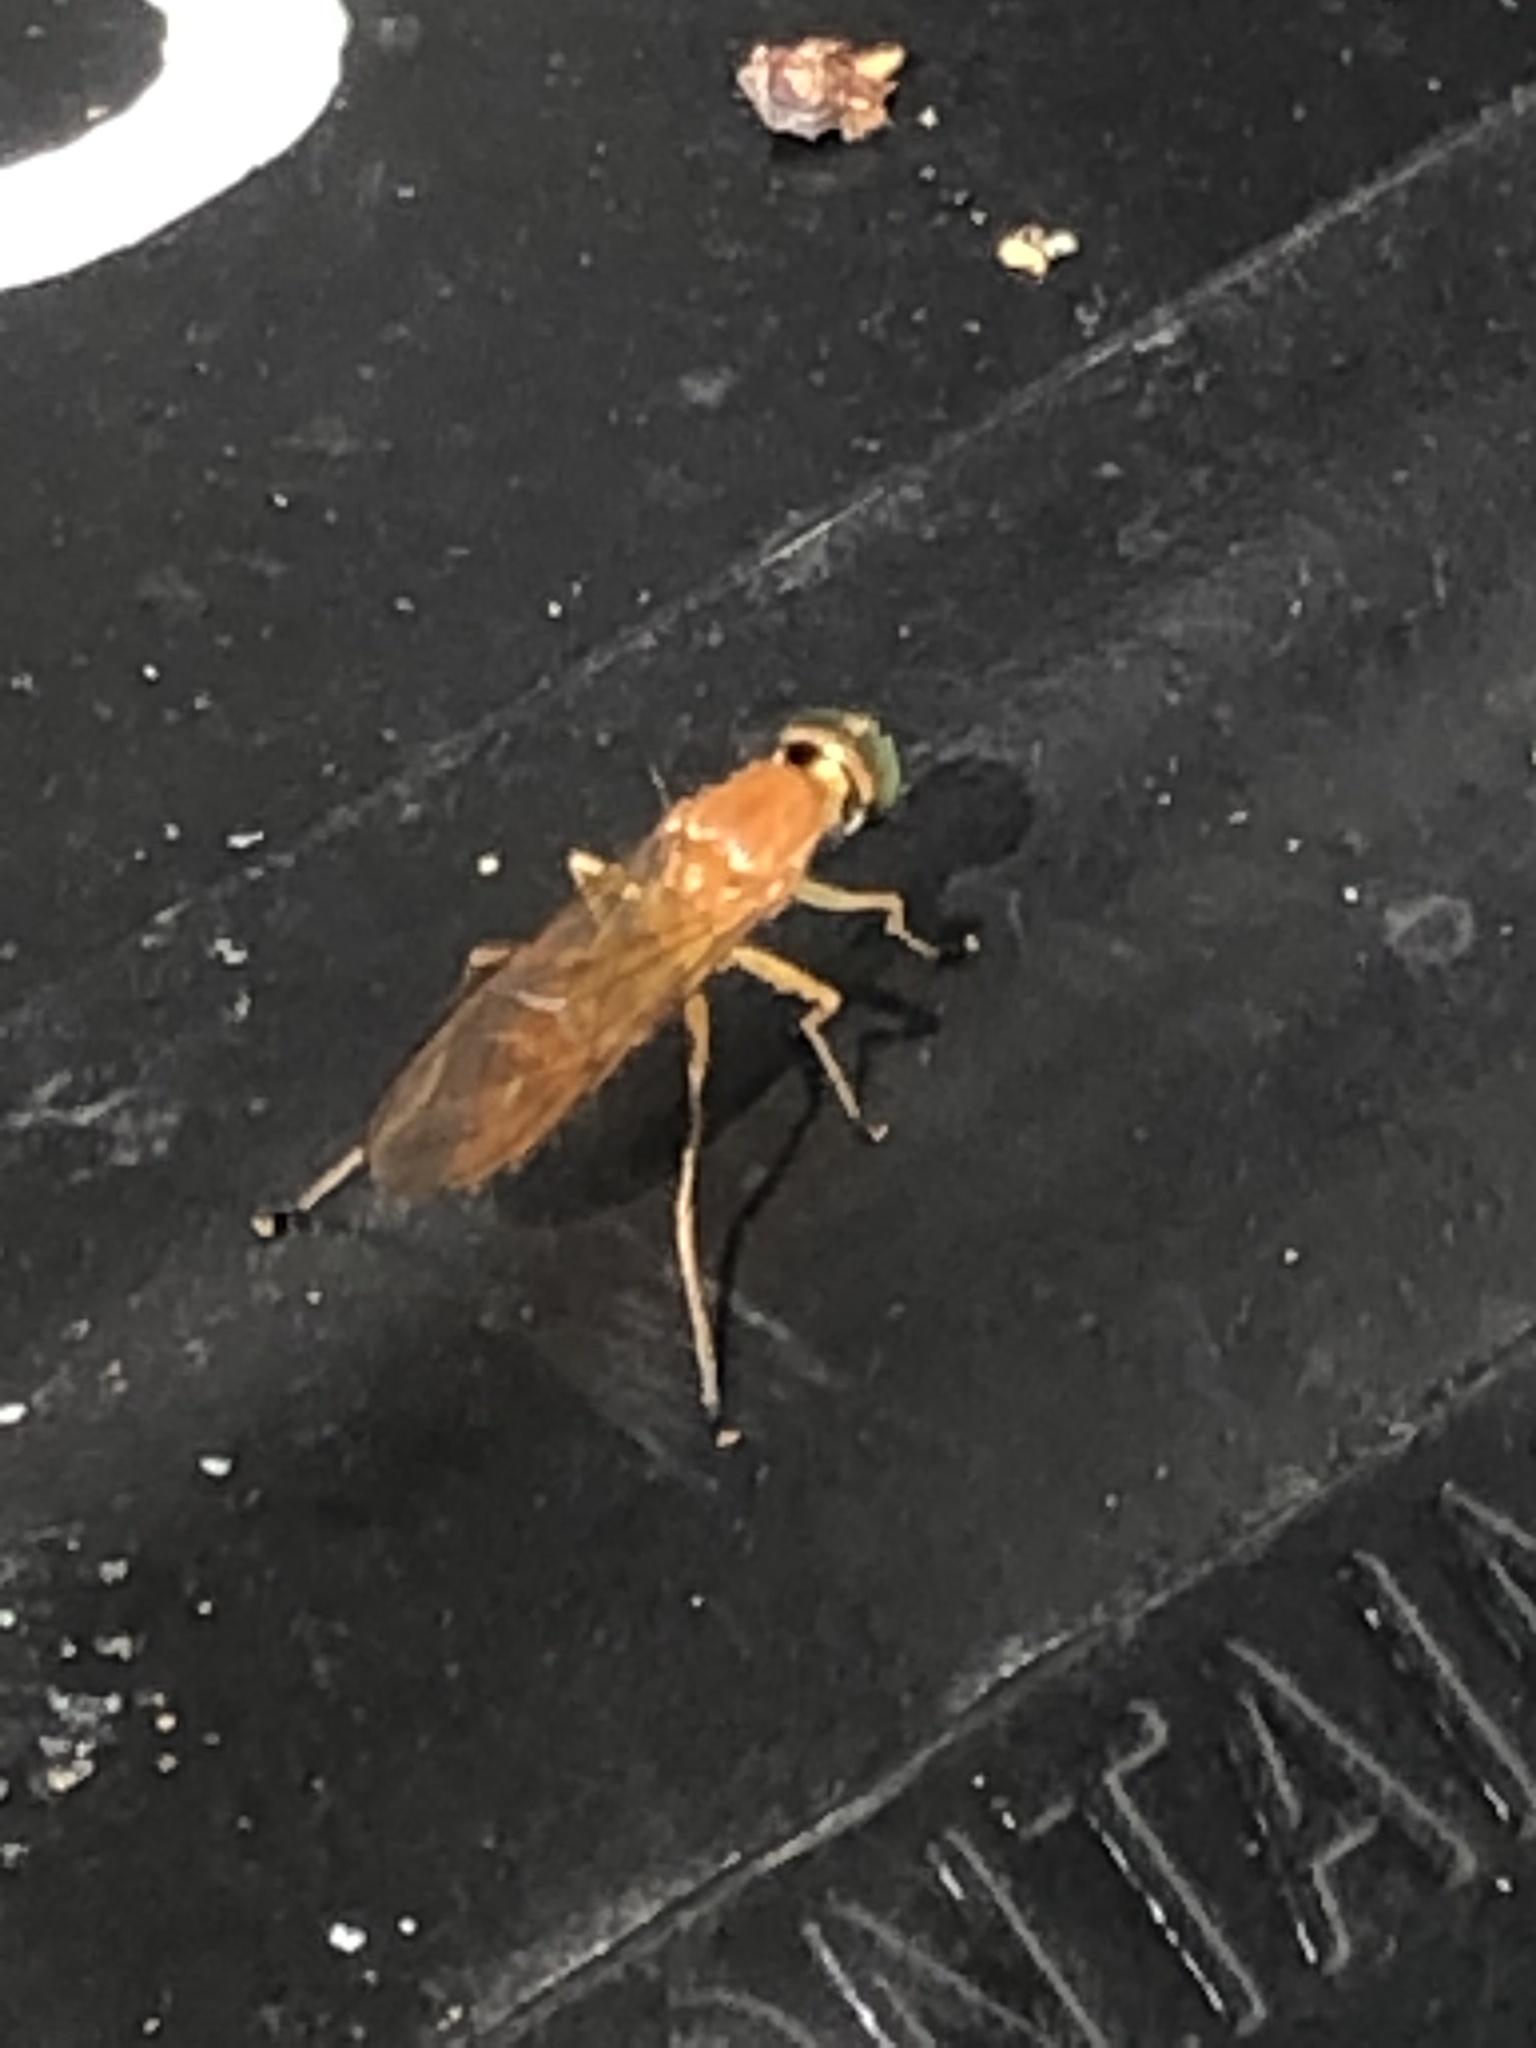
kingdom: Animalia
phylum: Arthropoda
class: Insecta
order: Diptera
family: Stratiomyidae
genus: Ptecticus
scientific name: Ptecticus trivittatus
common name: Compost fly
